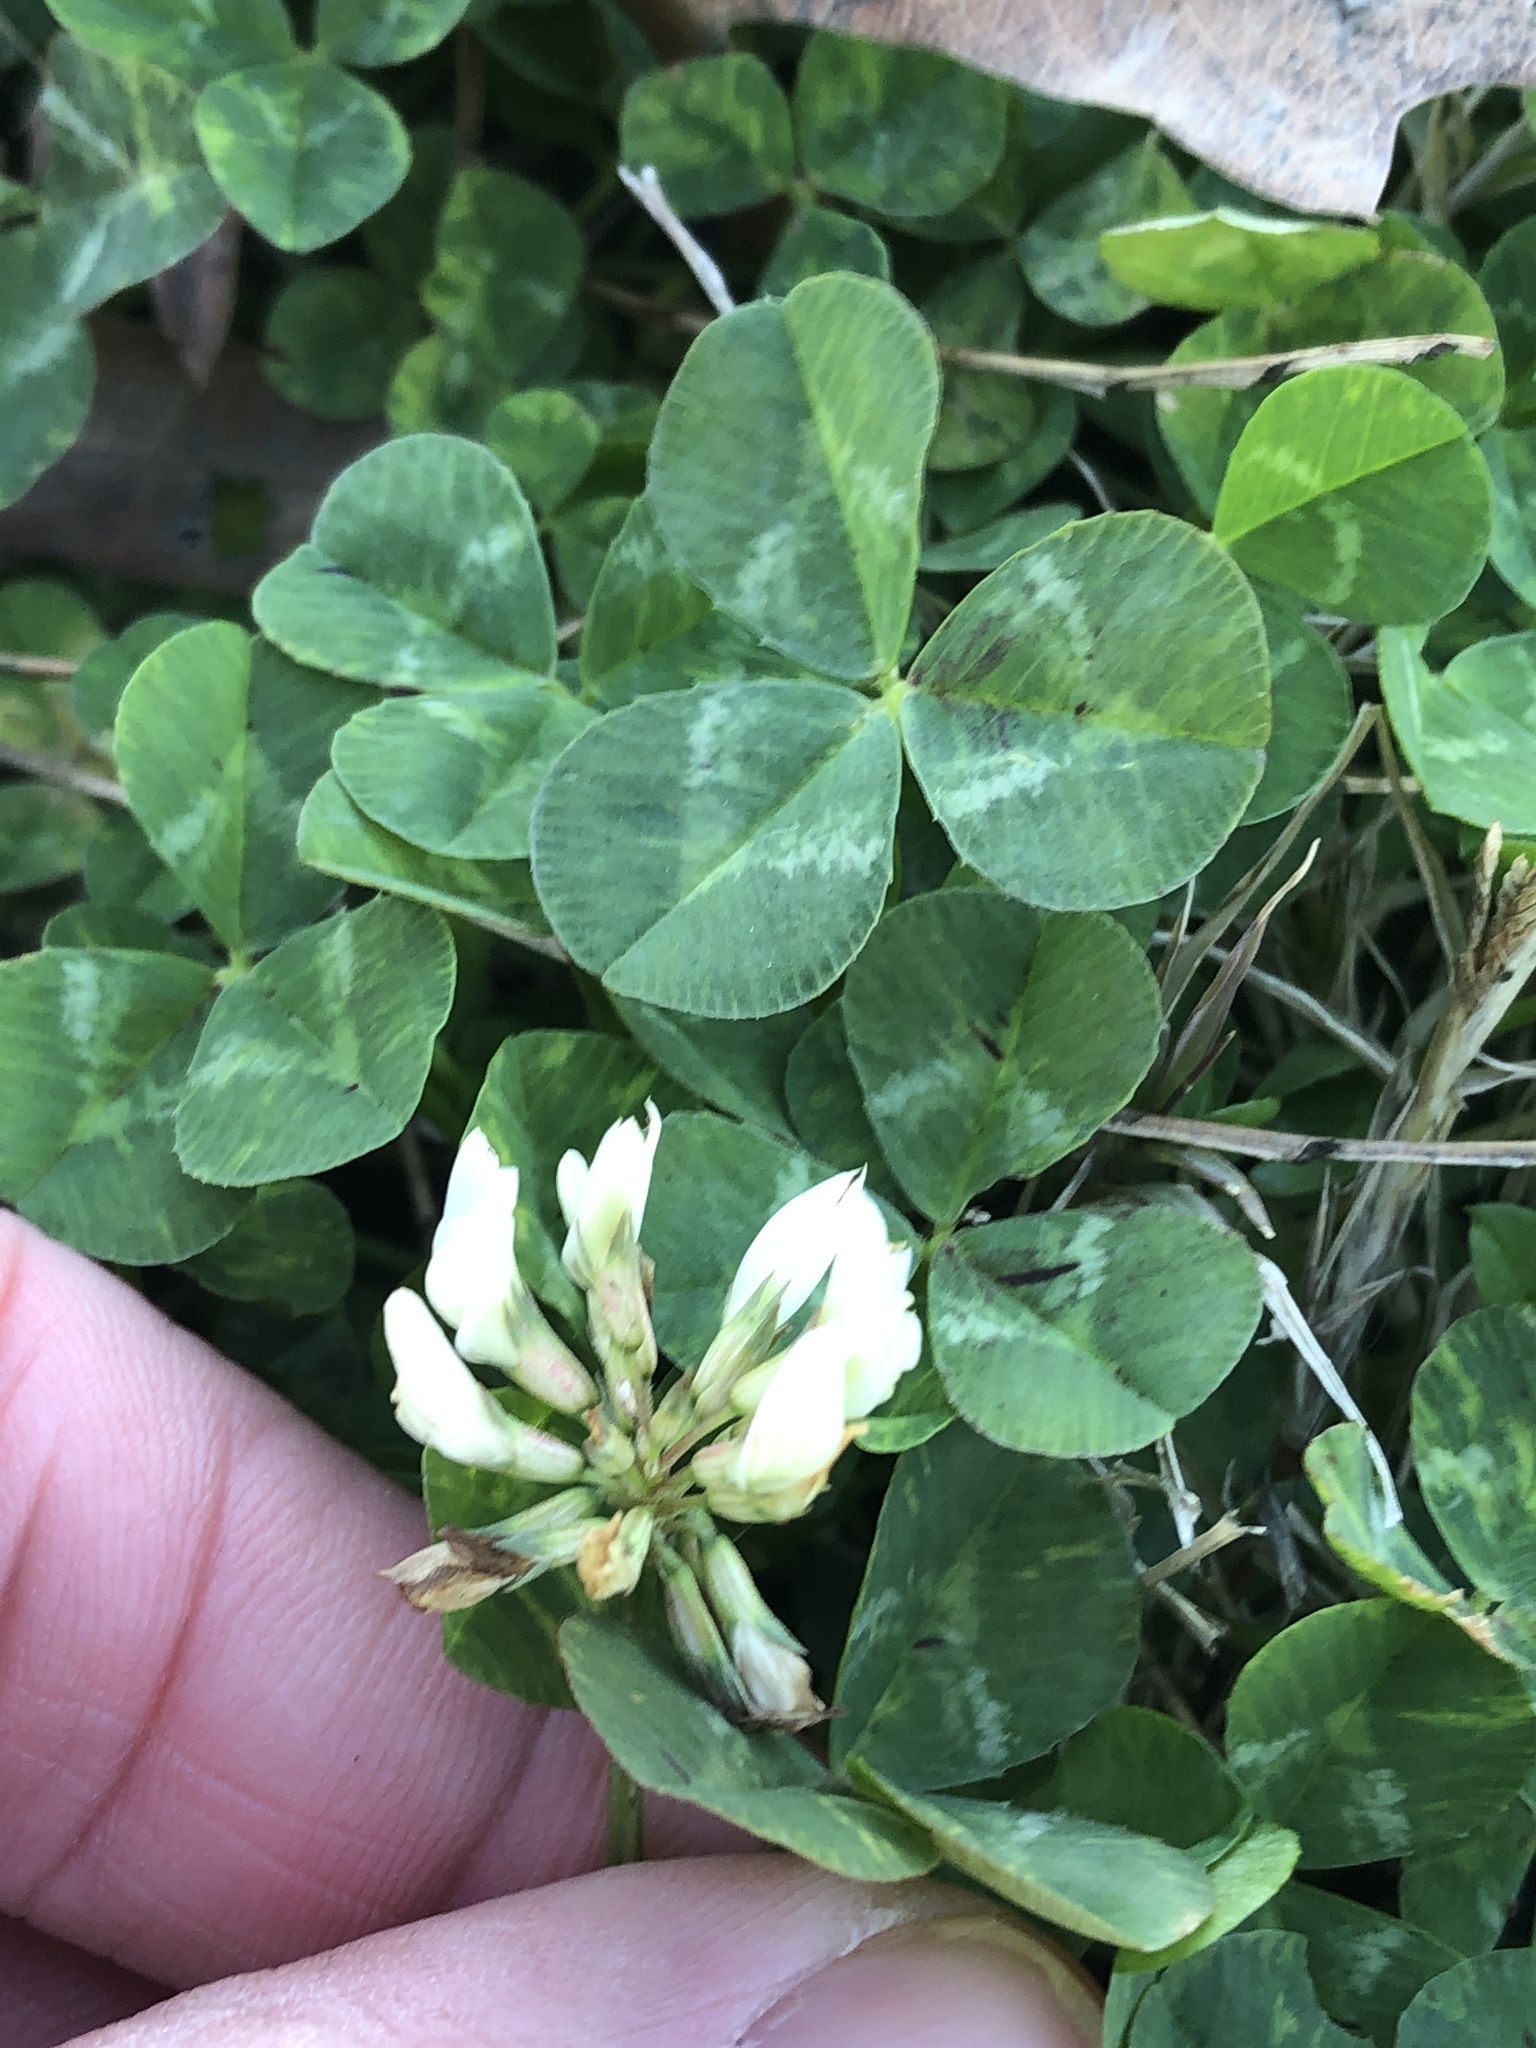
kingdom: Plantae
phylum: Tracheophyta
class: Magnoliopsida
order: Fabales
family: Fabaceae
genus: Trifolium
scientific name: Trifolium repens
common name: White clover
